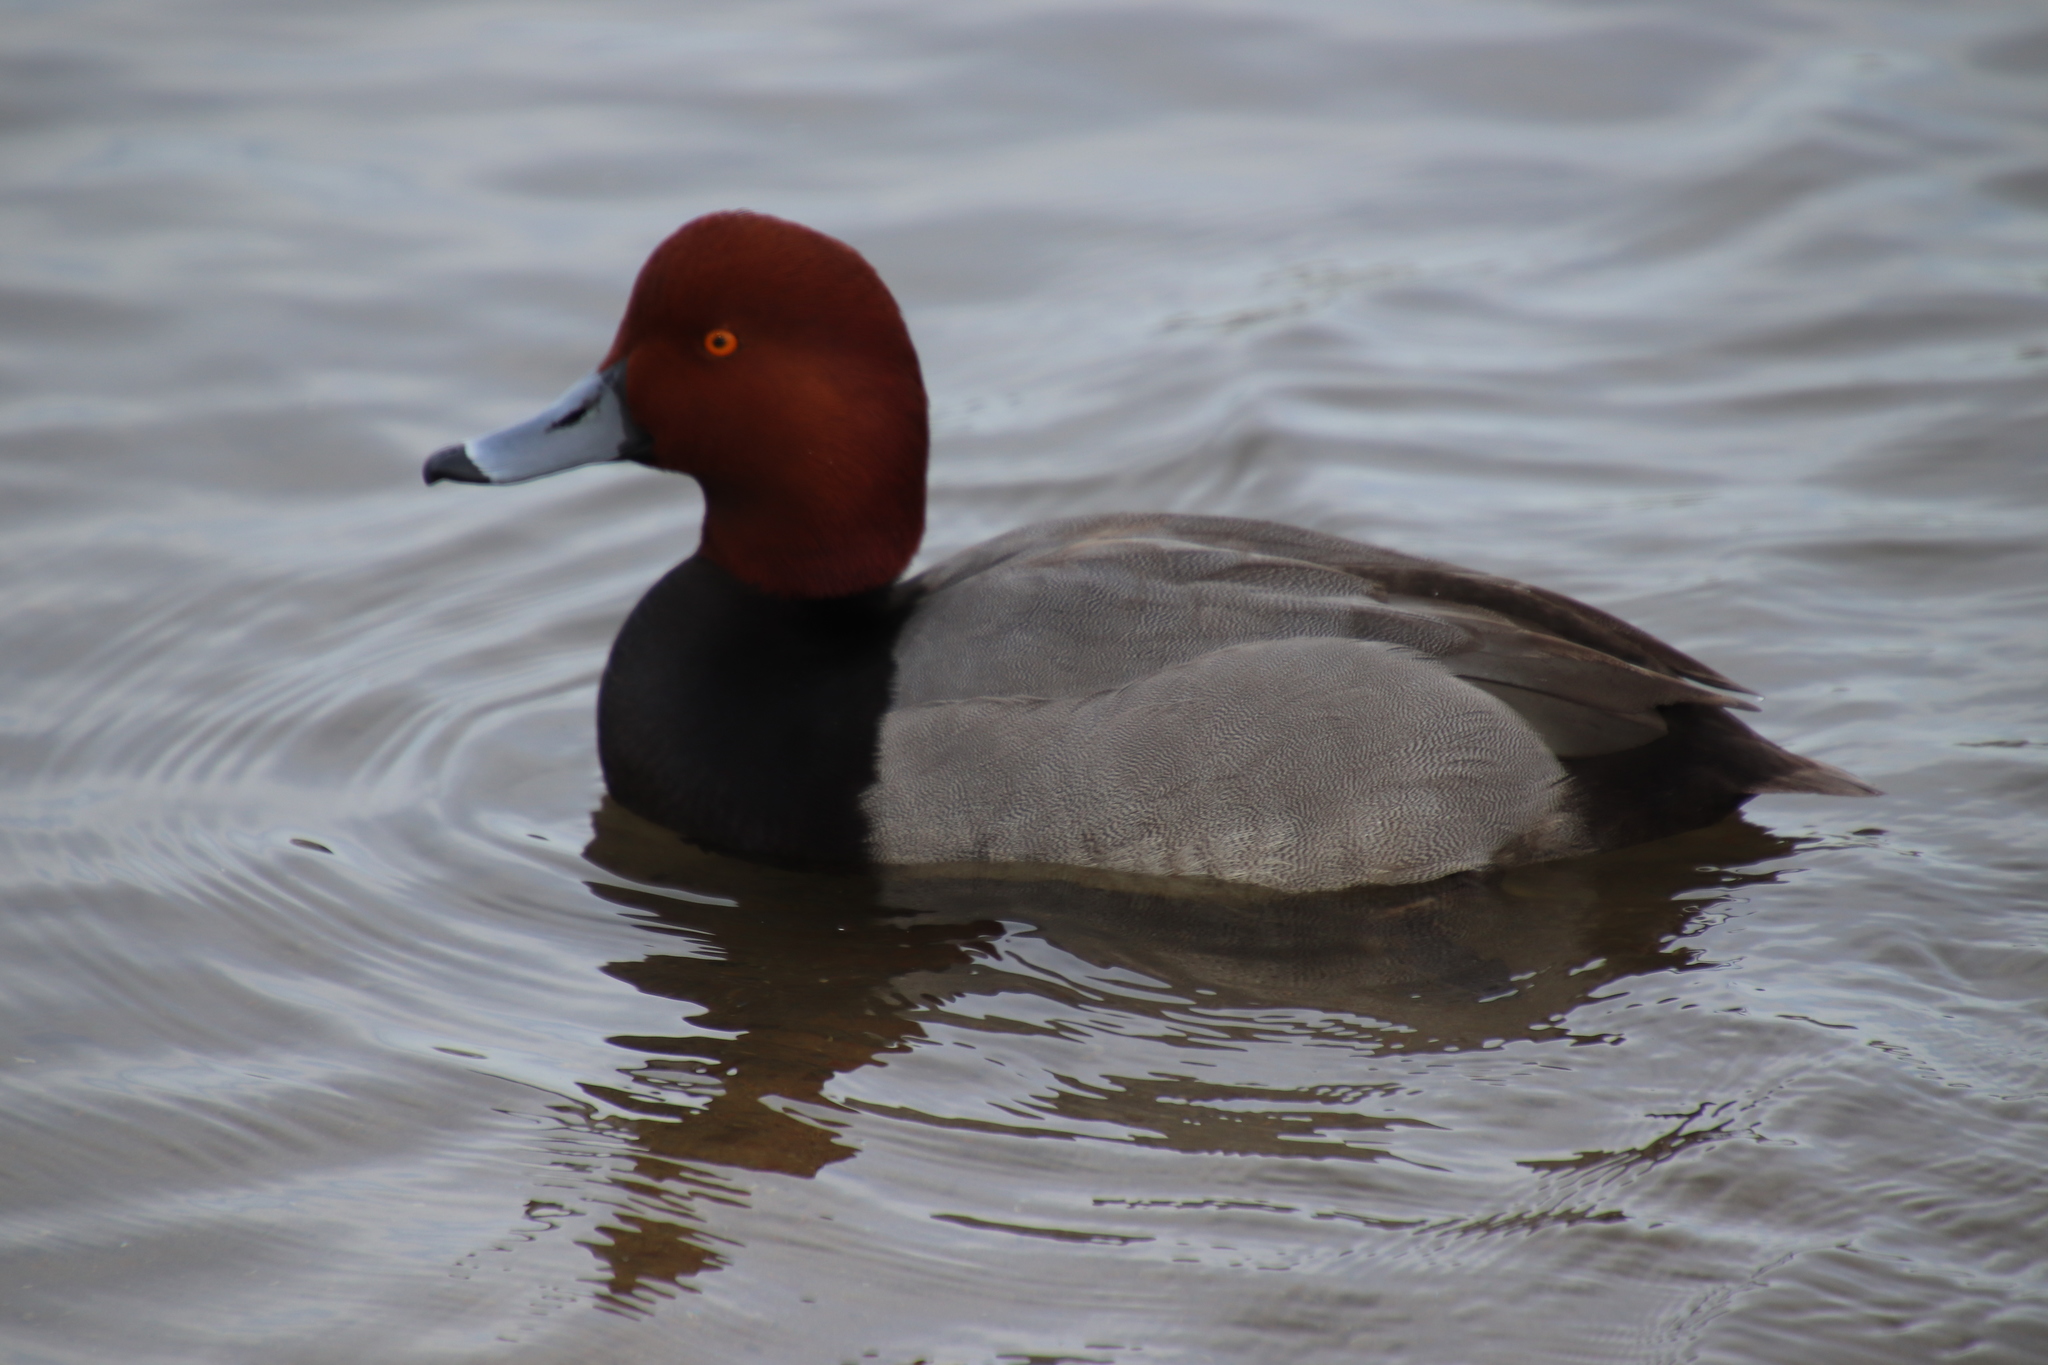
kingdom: Animalia
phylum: Chordata
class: Aves
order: Anseriformes
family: Anatidae
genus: Aythya
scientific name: Aythya americana
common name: Redhead
